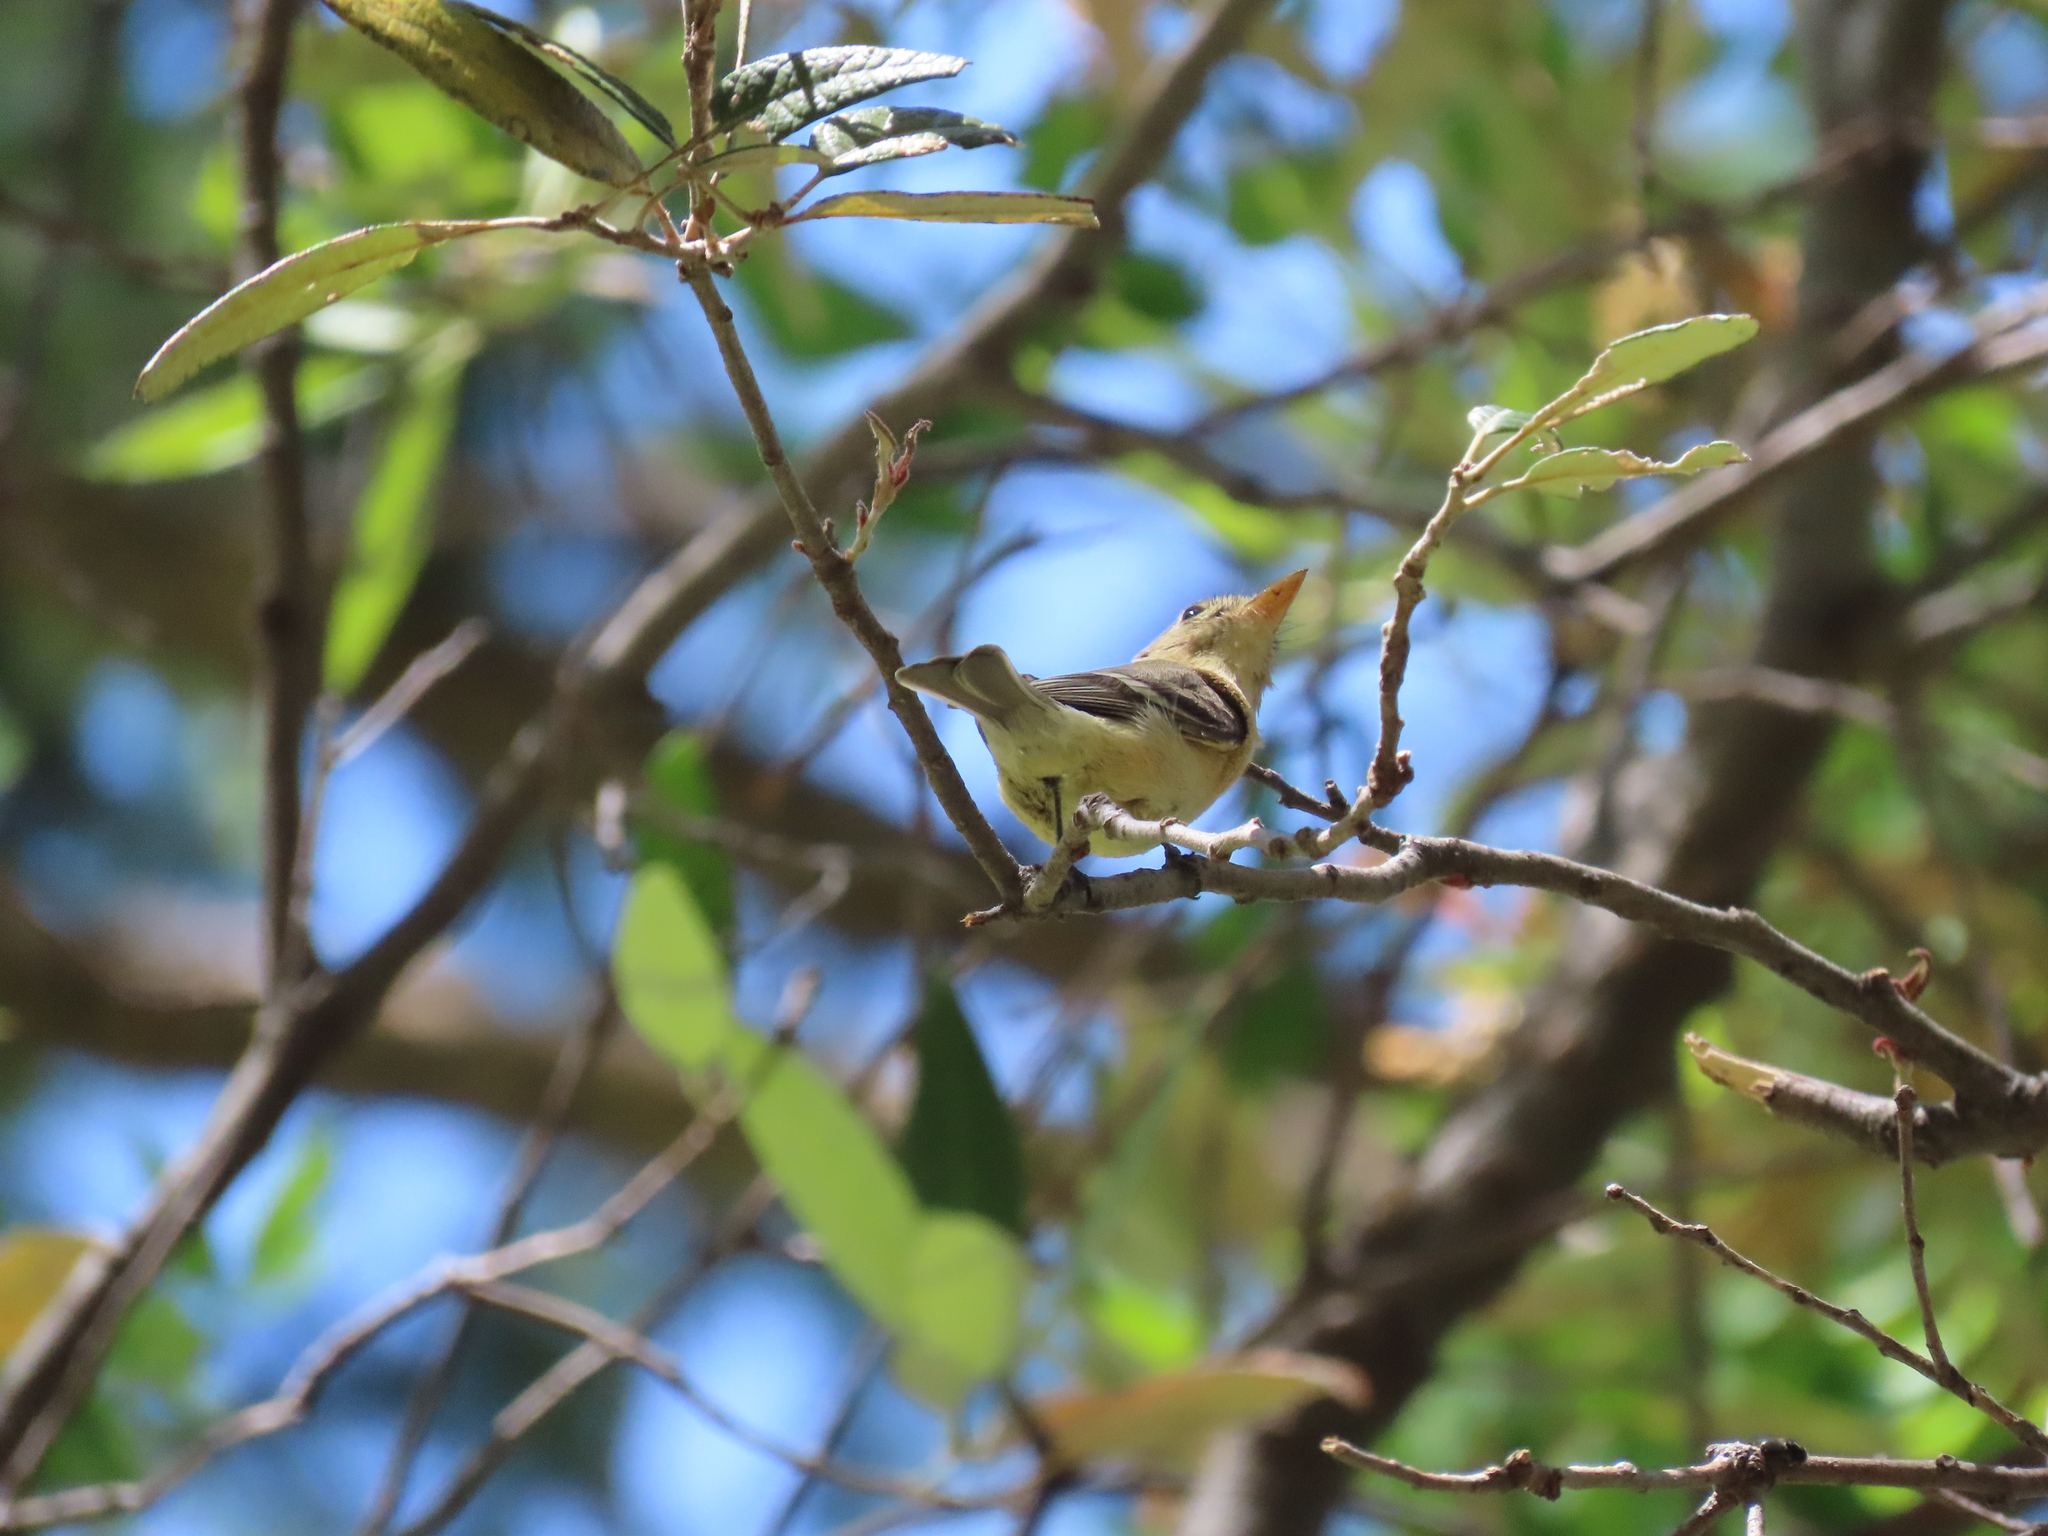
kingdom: Animalia
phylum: Chordata
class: Aves
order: Passeriformes
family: Tyrannidae
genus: Empidonax
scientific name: Empidonax fulvifrons
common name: Buff-breasted flycatcher
